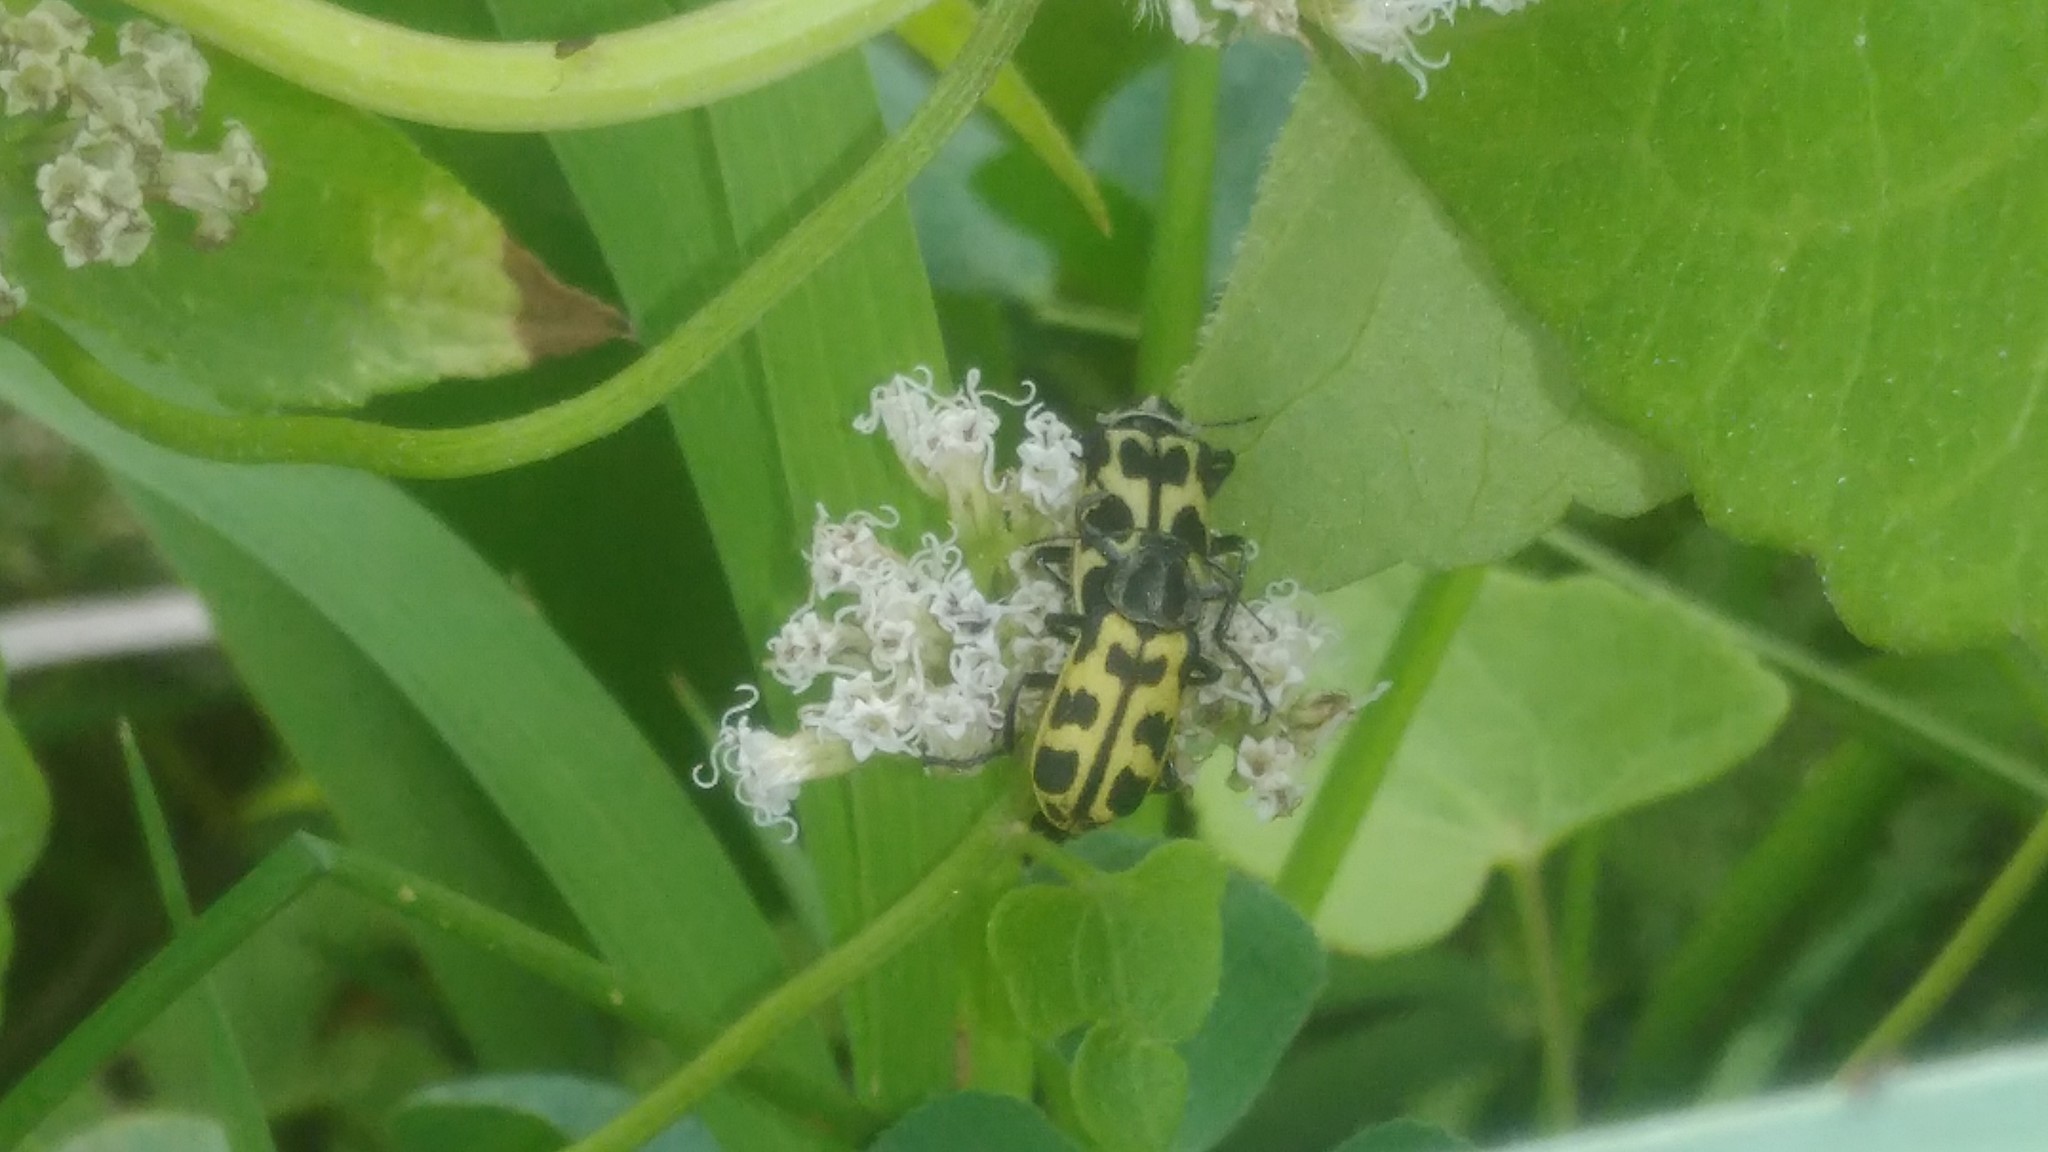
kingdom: Animalia
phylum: Arthropoda
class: Insecta
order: Coleoptera
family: Melyridae
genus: Astylus
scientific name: Astylus atromaculatus
